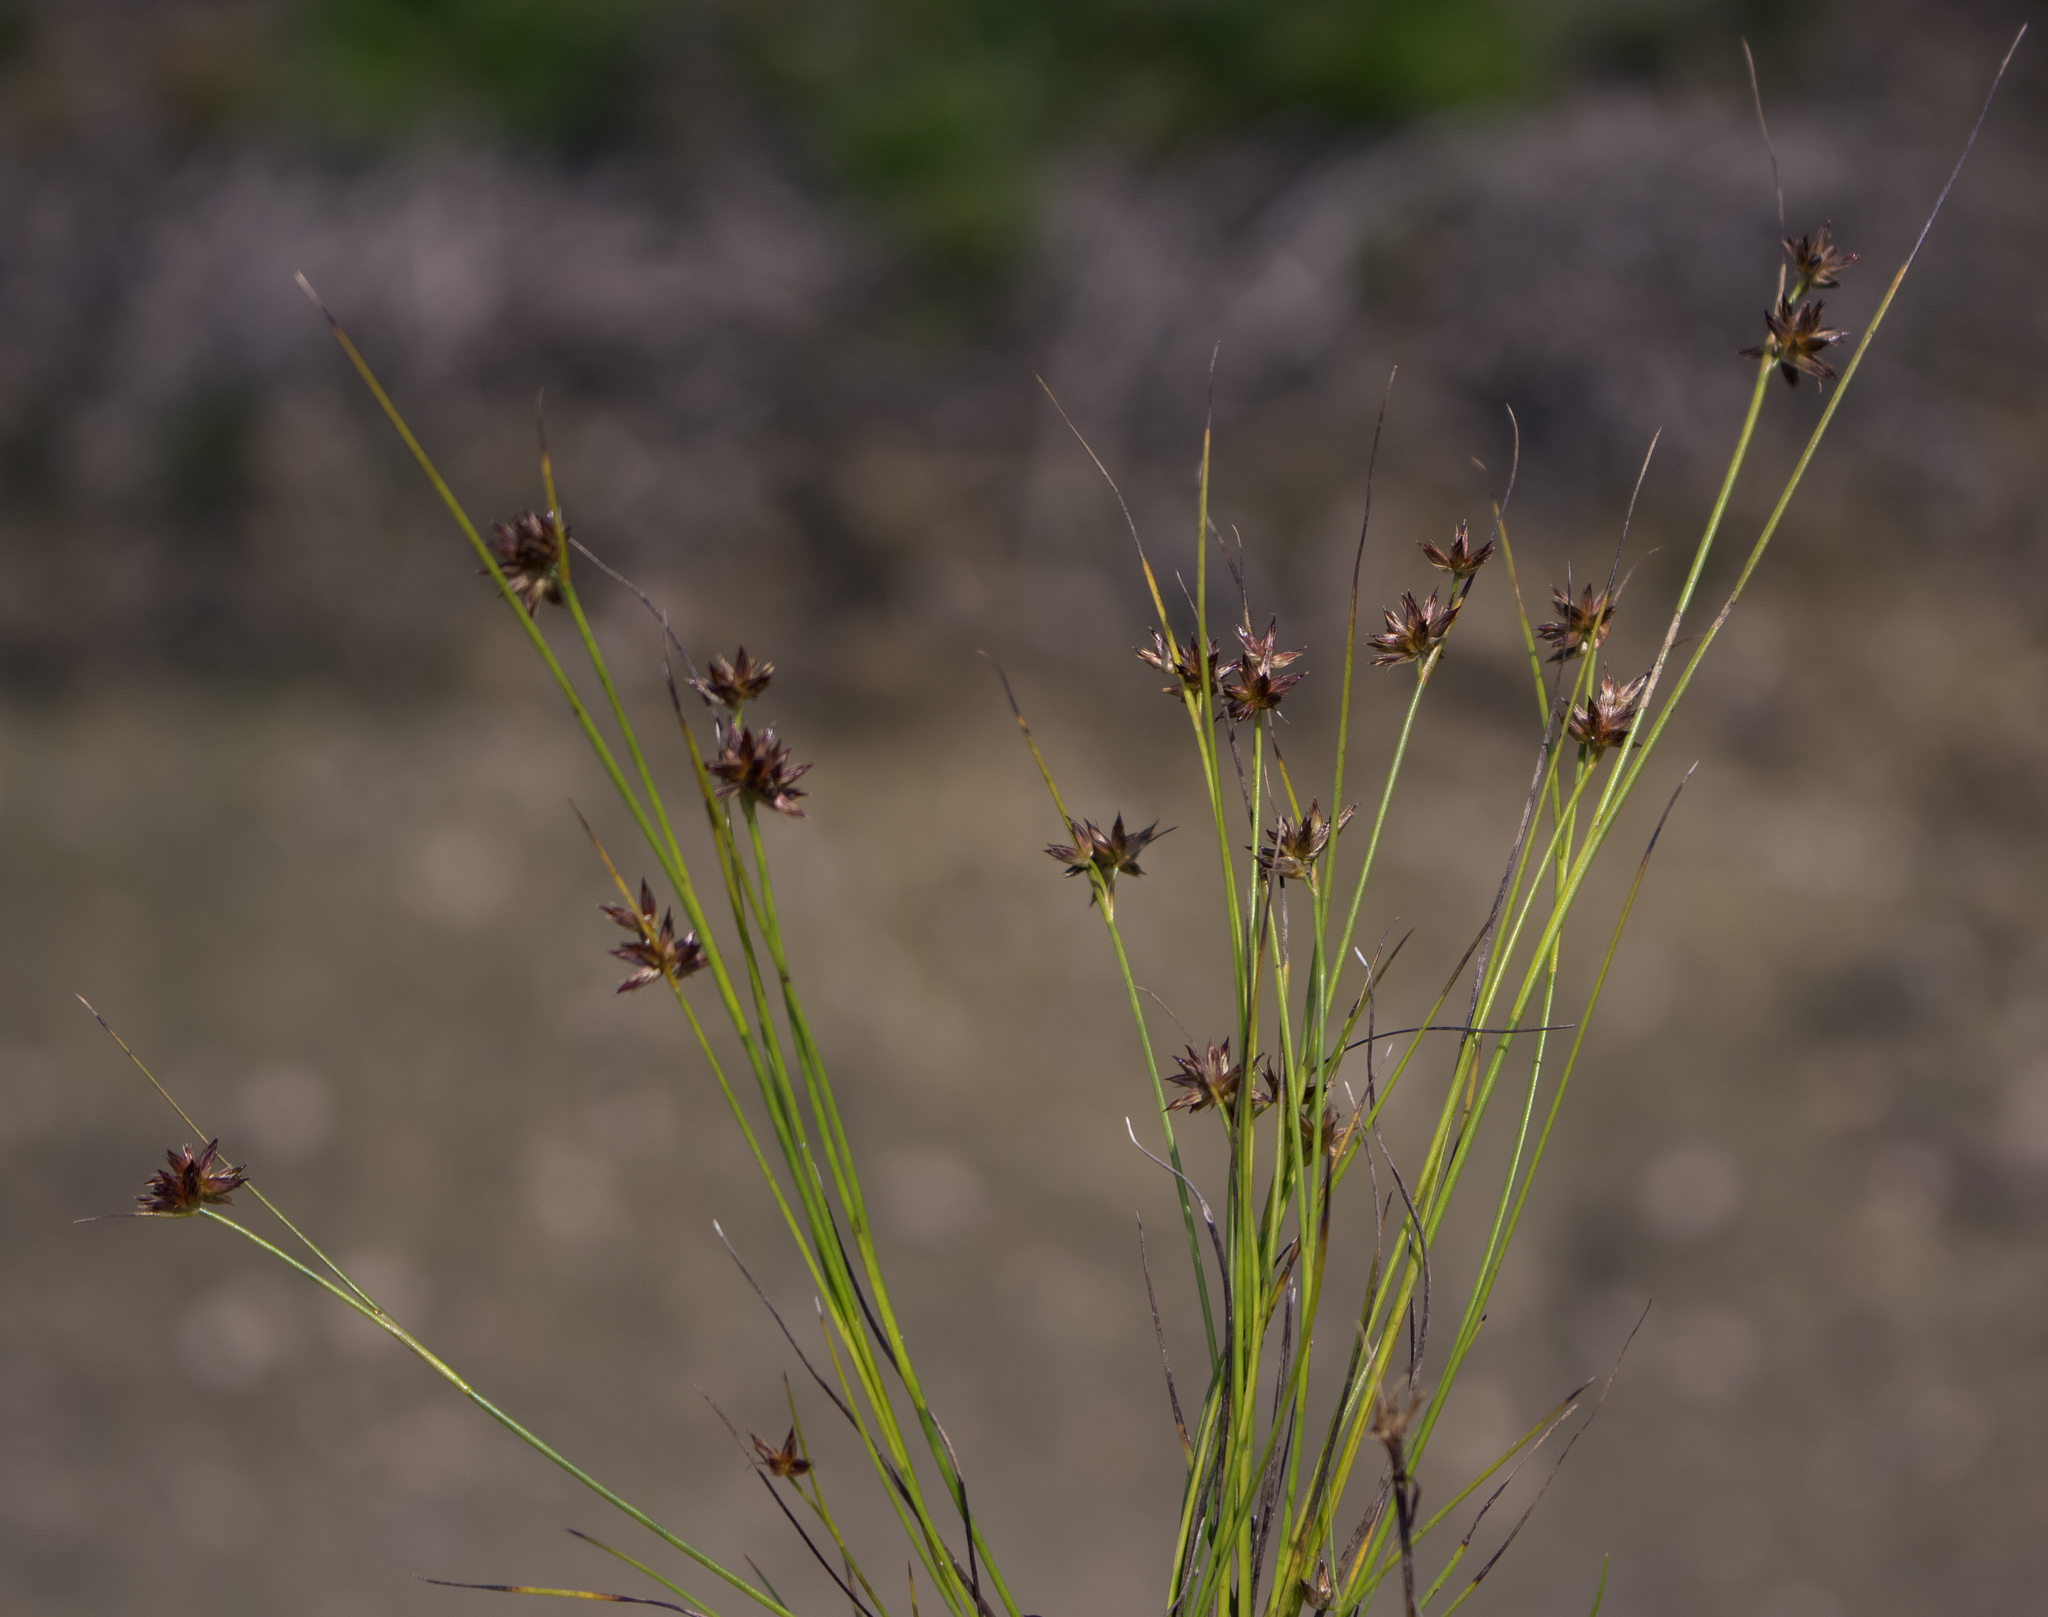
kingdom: Plantae
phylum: Tracheophyta
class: Liliopsida
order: Poales
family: Juncaceae
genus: Juncus
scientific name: Juncus nodosus
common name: Knotted rush
